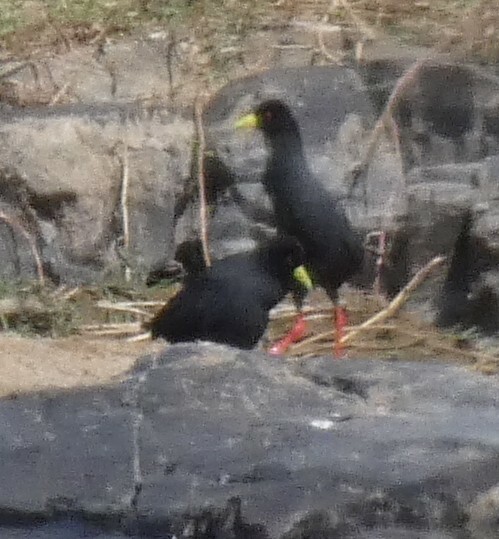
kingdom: Animalia
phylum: Chordata
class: Aves
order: Gruiformes
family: Rallidae
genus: Amaurornis
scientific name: Amaurornis flavirostra
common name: Black crake
